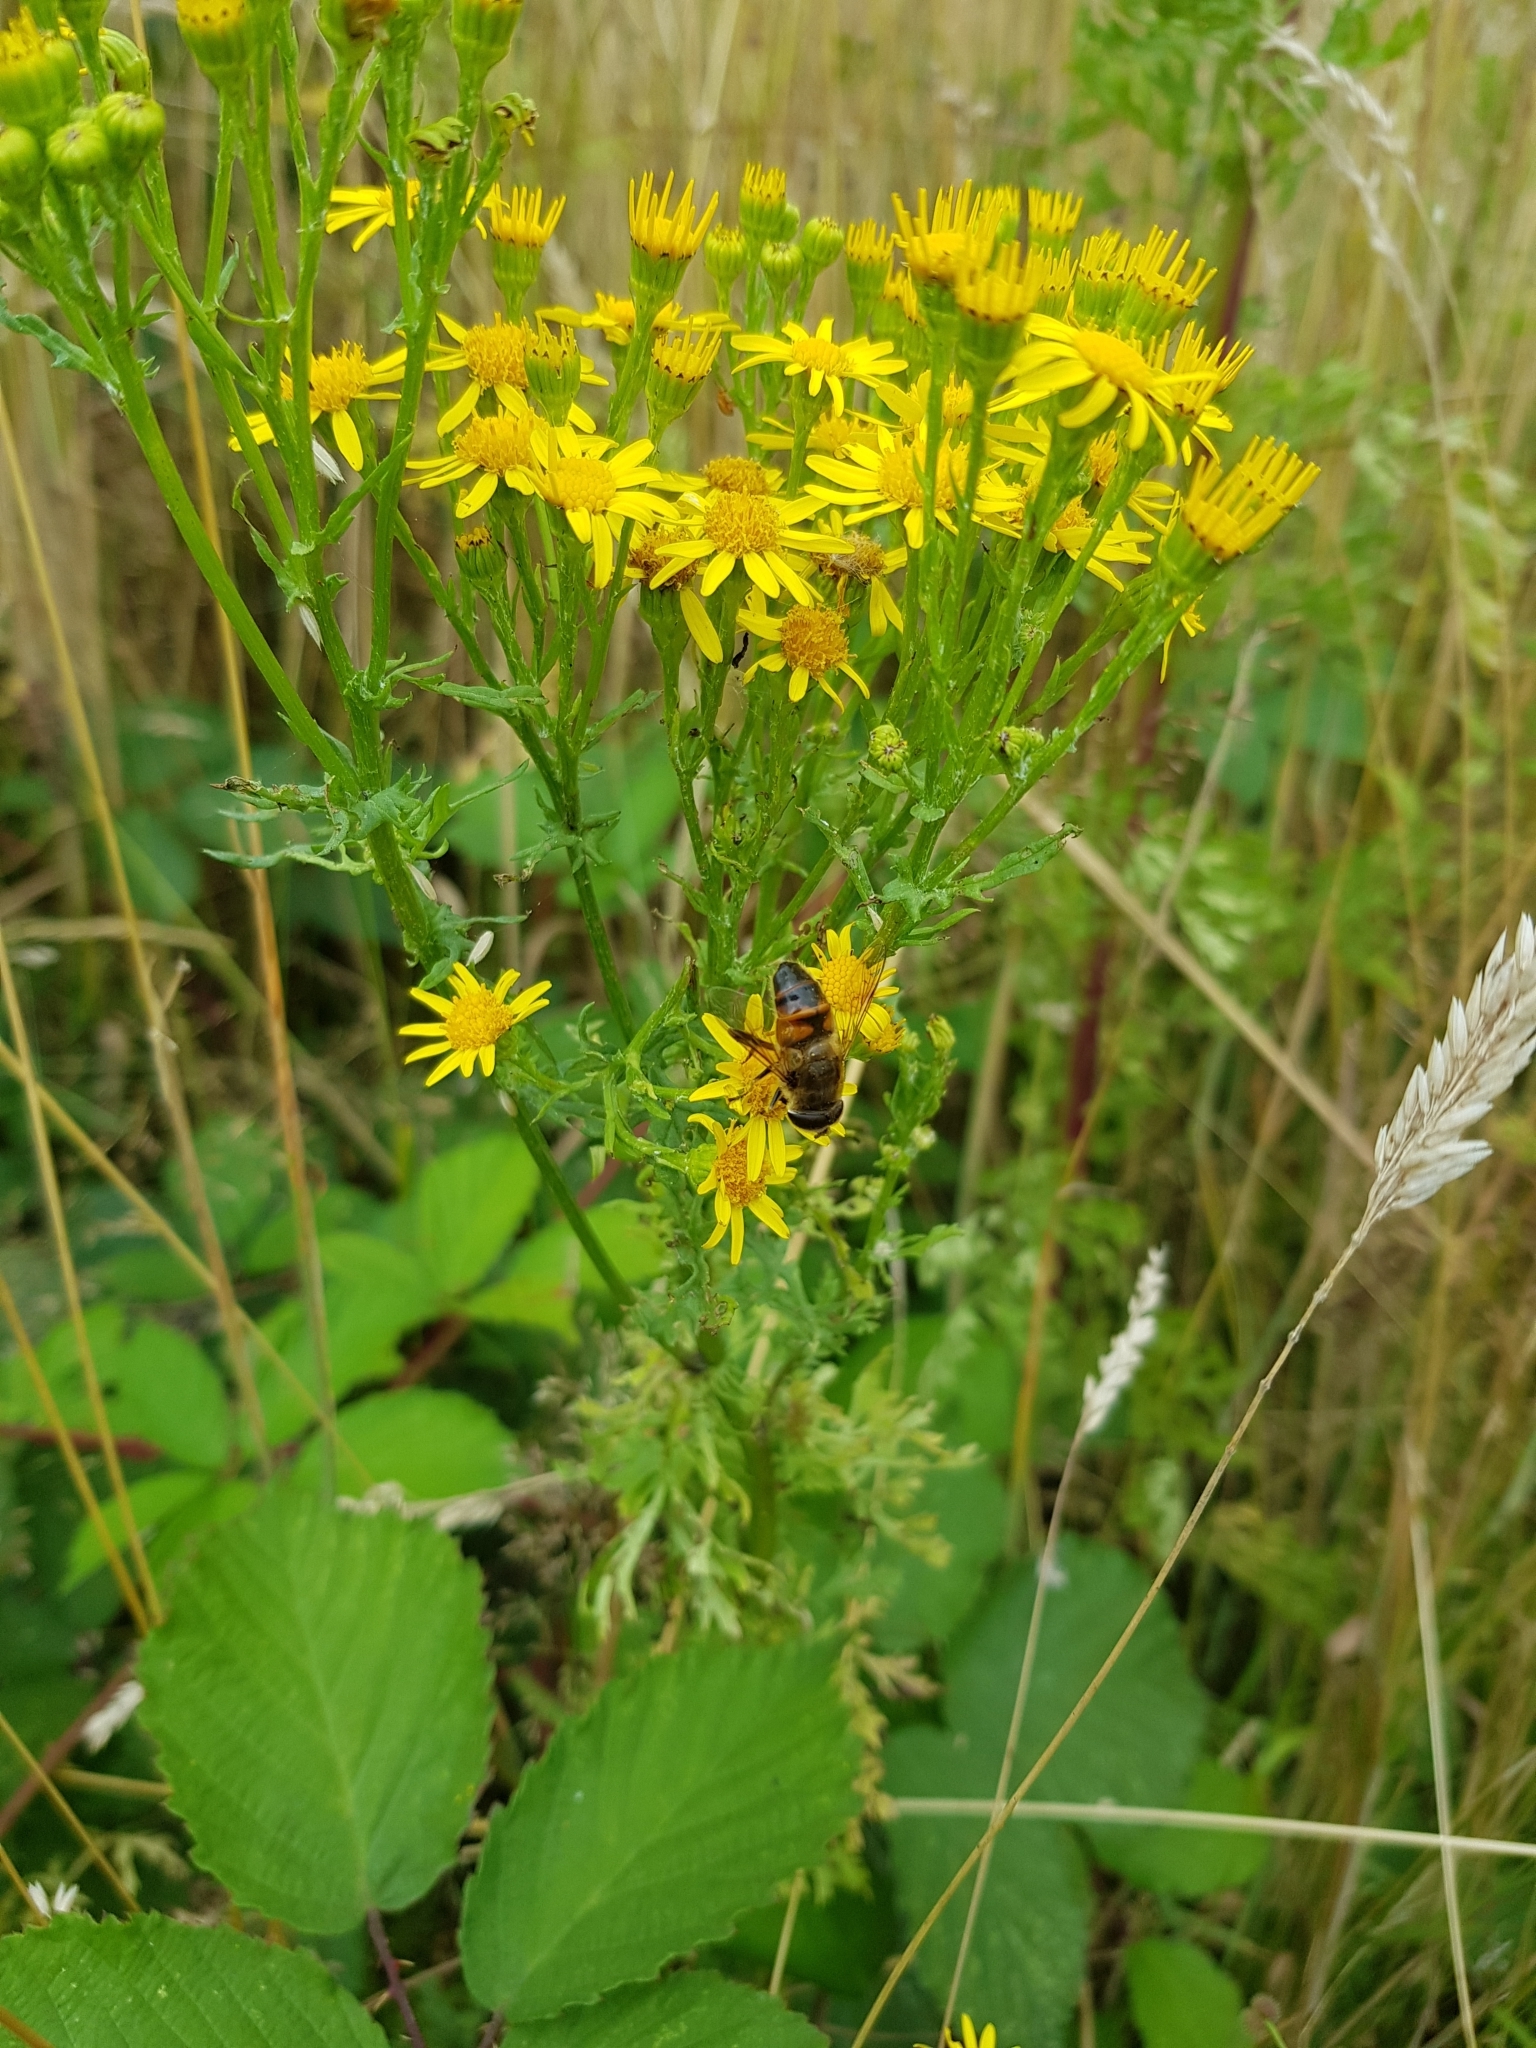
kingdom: Animalia
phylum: Arthropoda
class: Insecta
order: Diptera
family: Syrphidae
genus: Eristalis
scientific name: Eristalis tenax
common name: Drone fly
